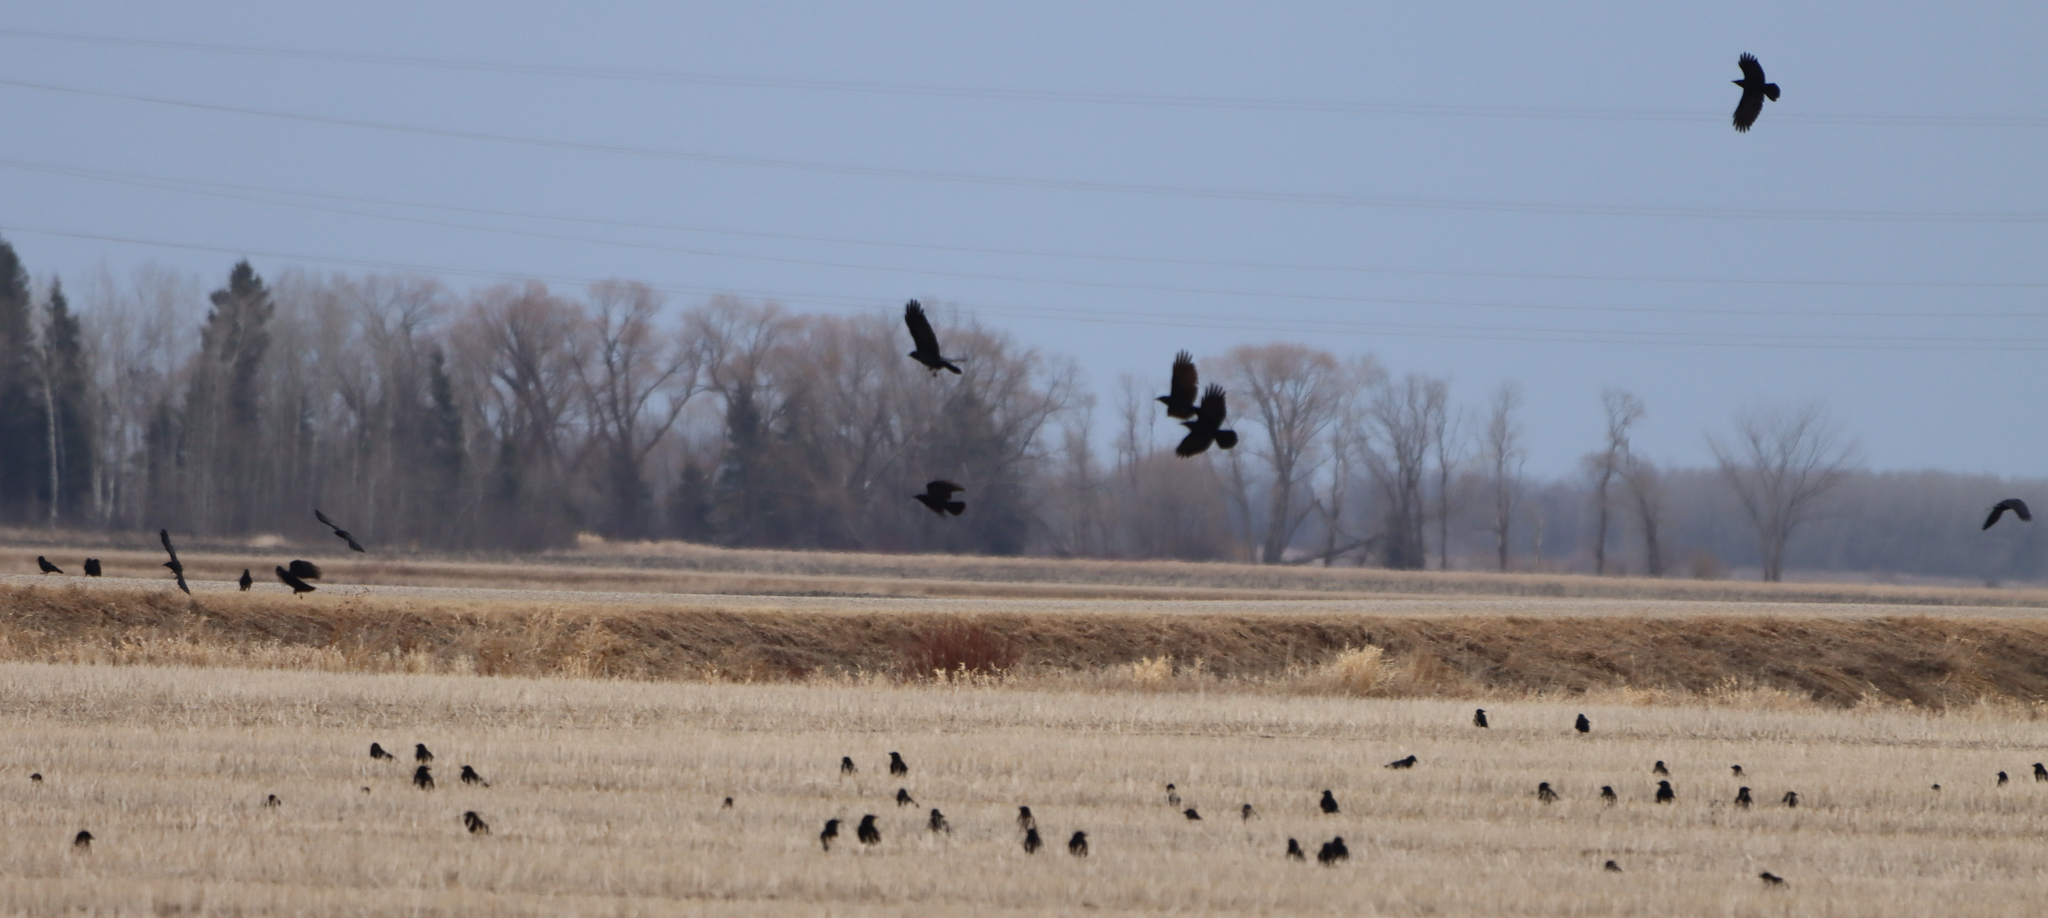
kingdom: Animalia
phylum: Chordata
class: Aves
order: Passeriformes
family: Corvidae
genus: Corvus
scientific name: Corvus brachyrhynchos
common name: American crow
